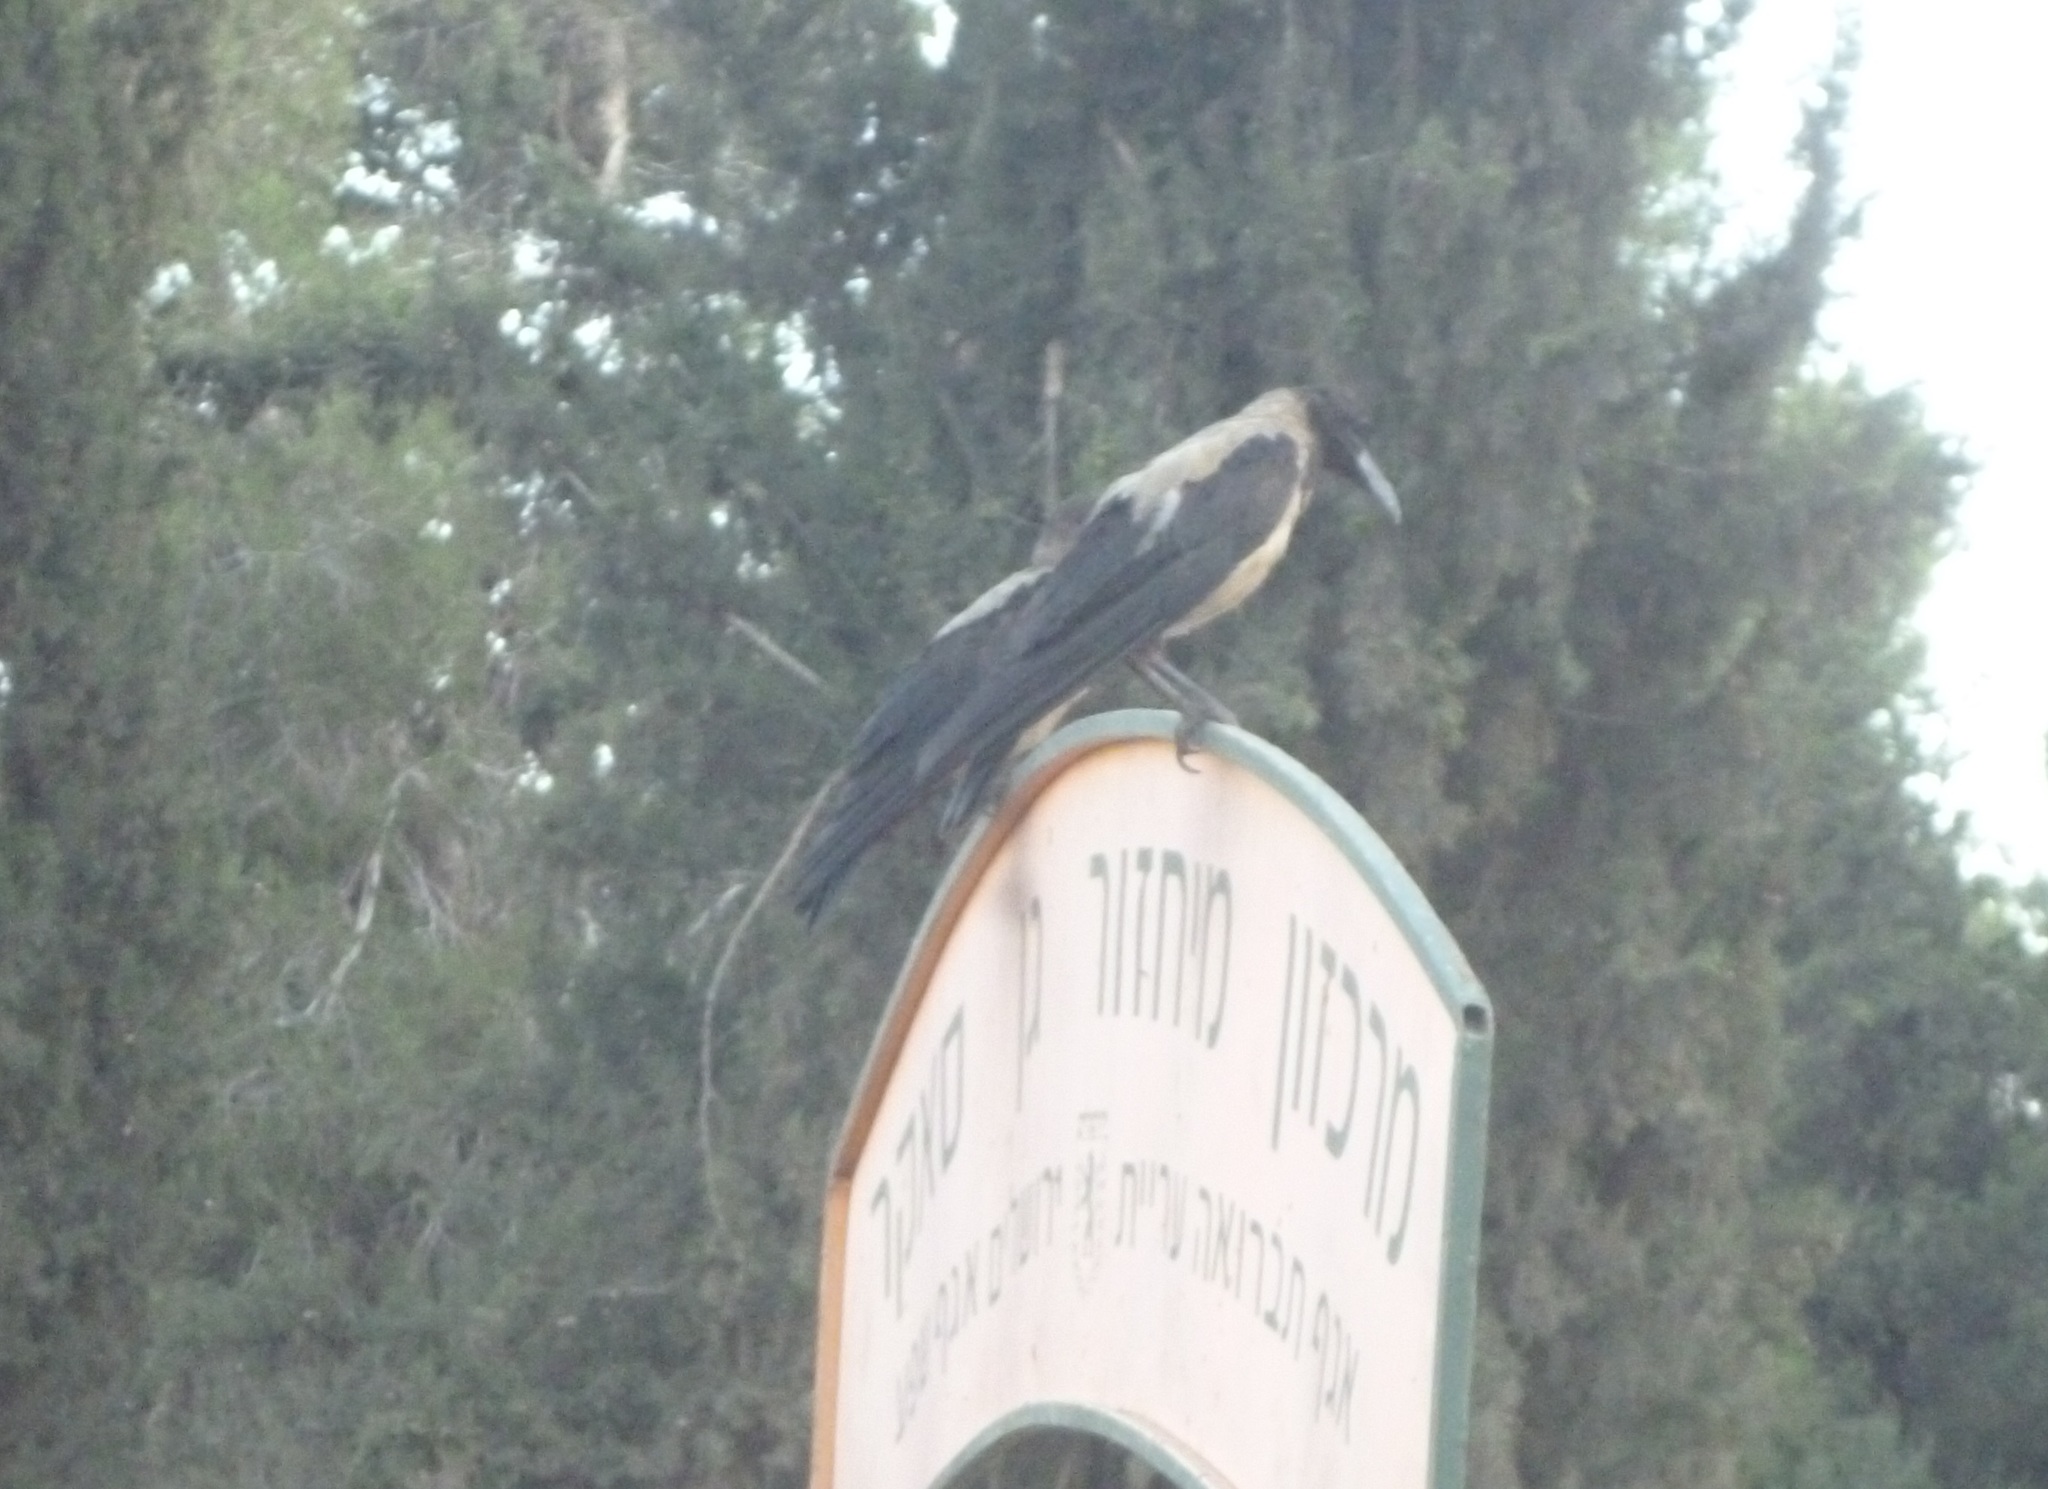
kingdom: Animalia
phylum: Chordata
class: Aves
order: Passeriformes
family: Corvidae
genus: Corvus
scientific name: Corvus cornix
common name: Hooded crow
